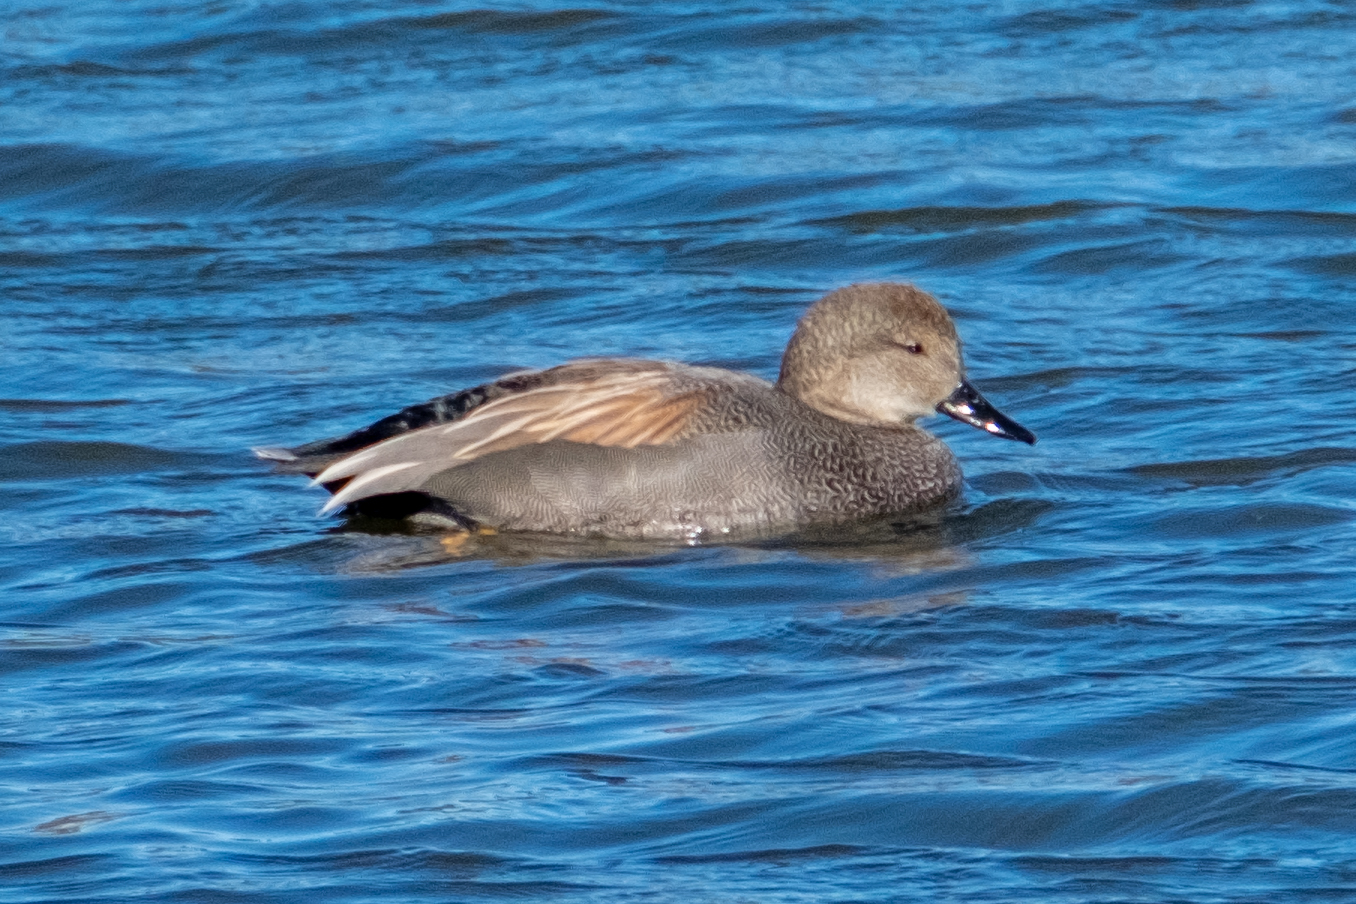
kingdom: Animalia
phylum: Chordata
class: Aves
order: Anseriformes
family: Anatidae
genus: Mareca
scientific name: Mareca strepera
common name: Gadwall
